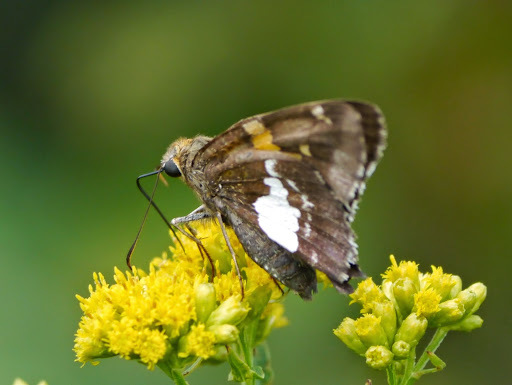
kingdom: Animalia
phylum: Arthropoda
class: Insecta
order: Lepidoptera
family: Hesperiidae
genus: Epargyreus
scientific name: Epargyreus clarus
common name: Silver-spotted skipper
